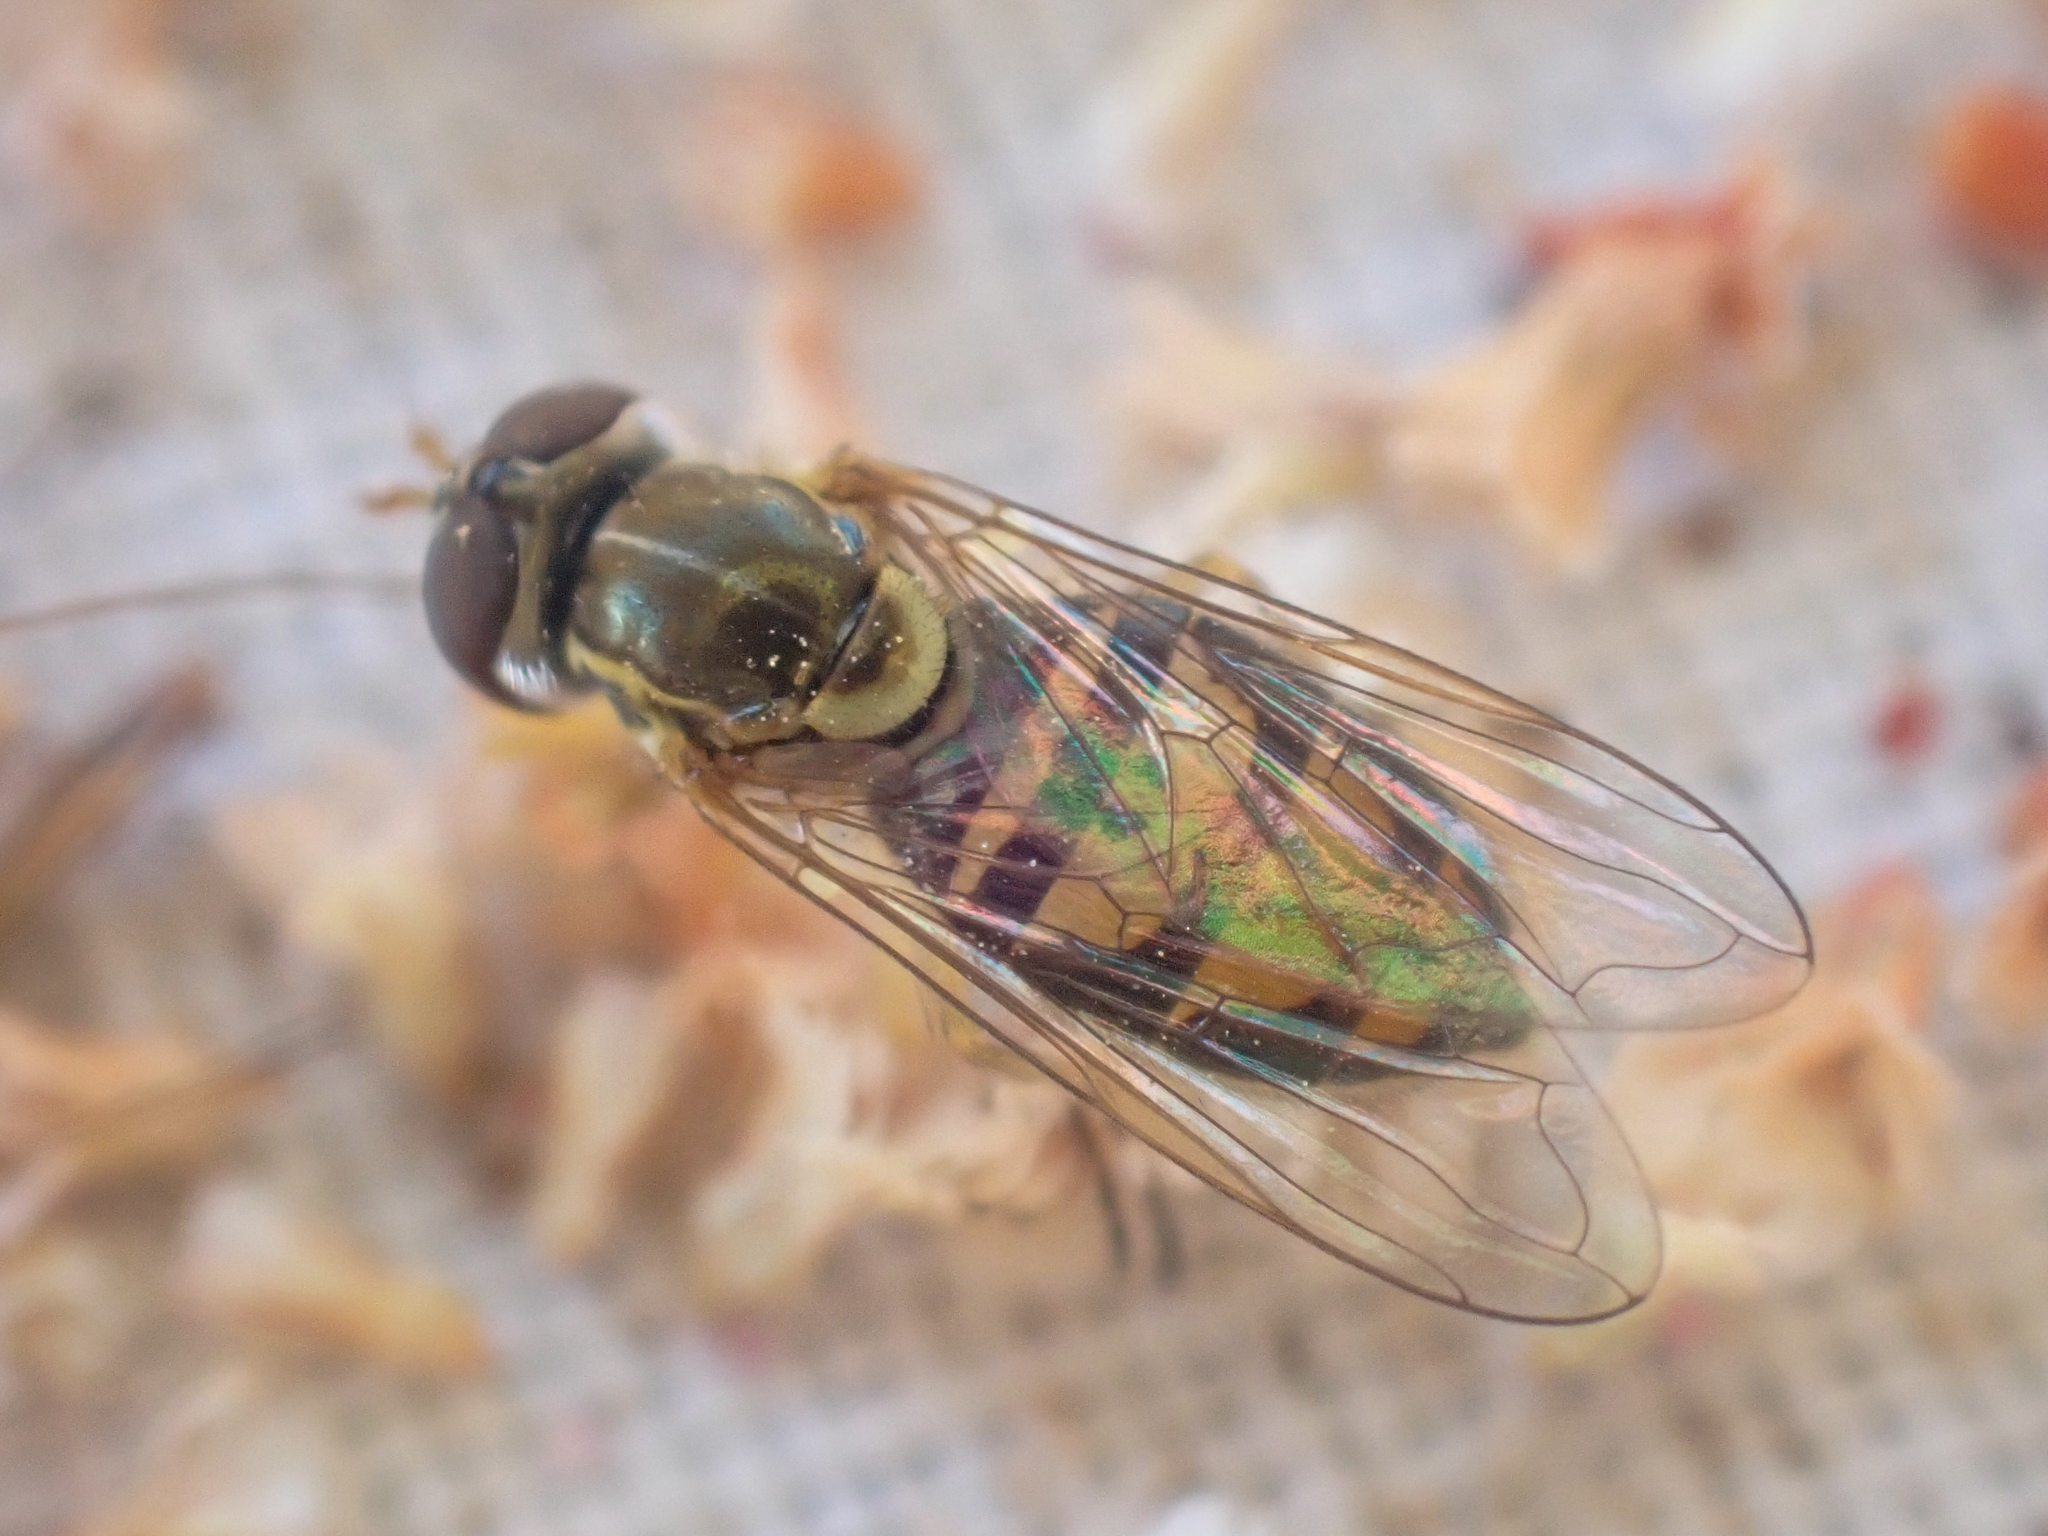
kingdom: Animalia
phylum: Arthropoda
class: Insecta
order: Diptera
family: Syrphidae
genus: Toxomerus
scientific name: Toxomerus marginatus
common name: Syrphid fly
